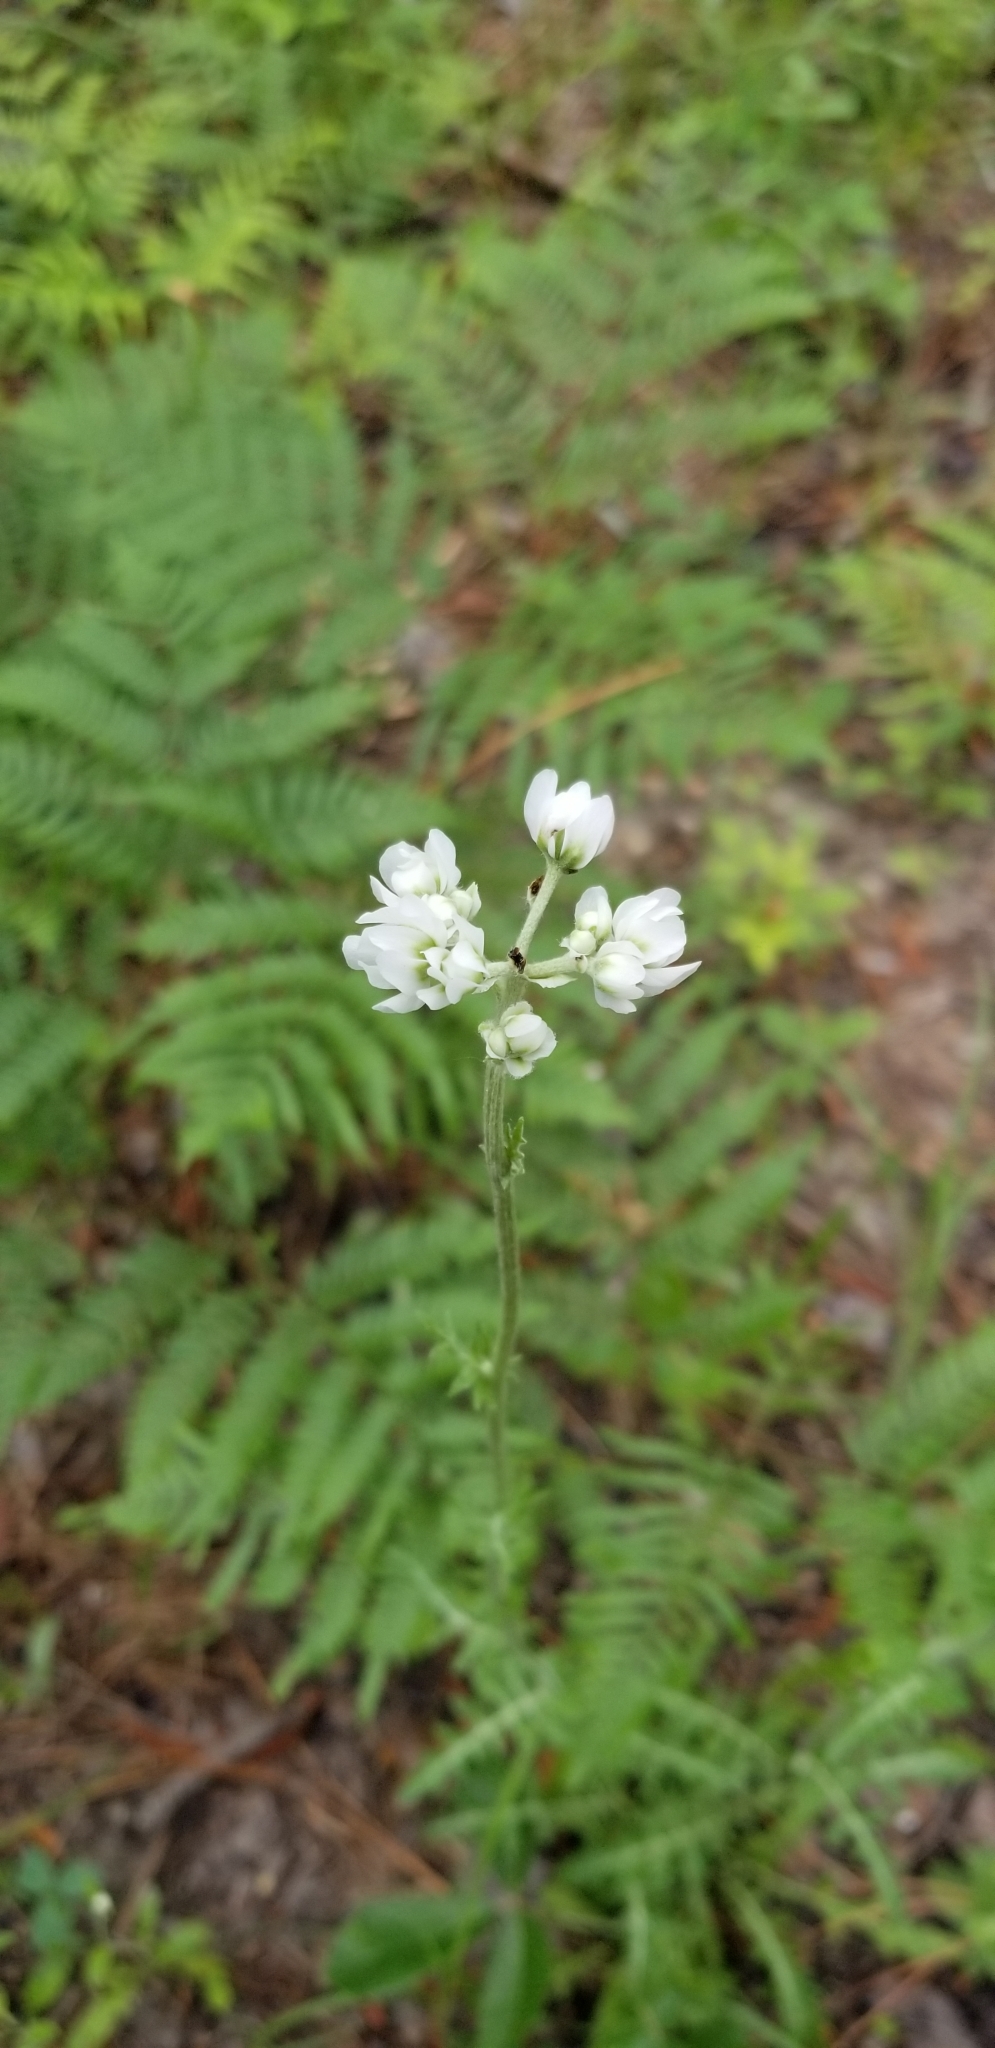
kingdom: Plantae
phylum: Tracheophyta
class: Magnoliopsida
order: Asterales
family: Asteraceae
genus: Hymenopappus
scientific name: Hymenopappus artemisiifolius
